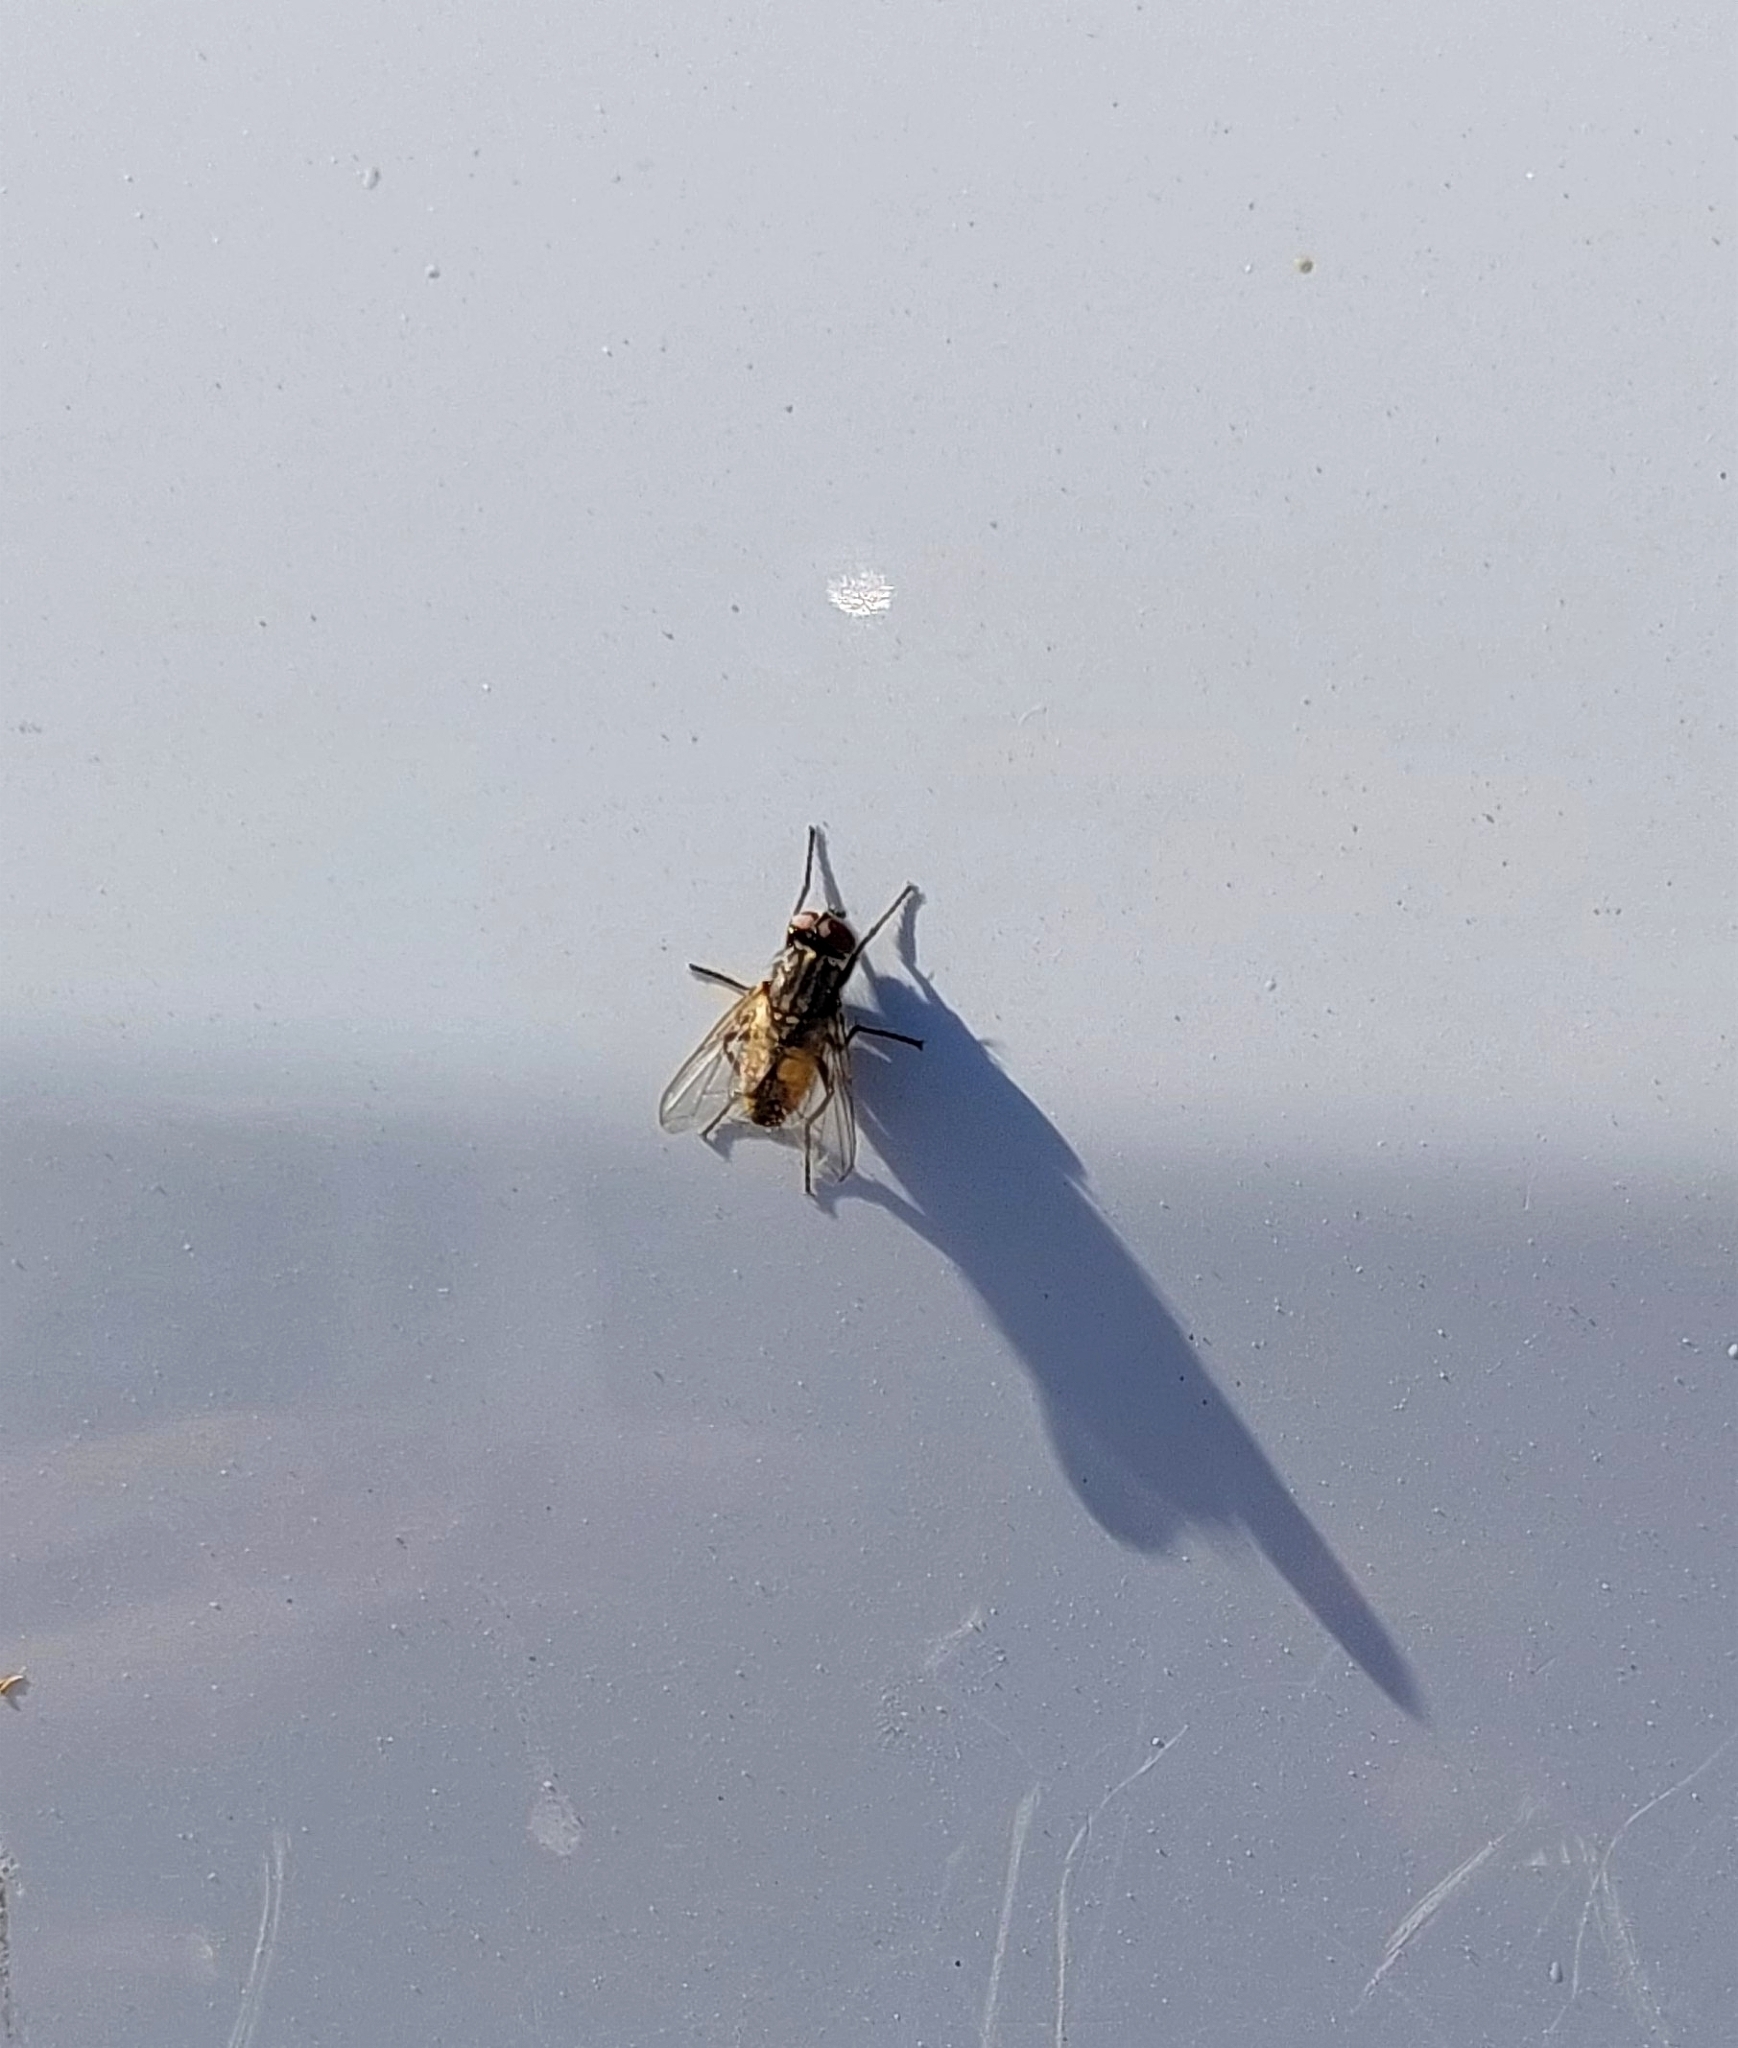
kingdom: Animalia
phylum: Arthropoda
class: Insecta
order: Diptera
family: Muscidae
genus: Musca
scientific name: Musca domestica
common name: House fly
